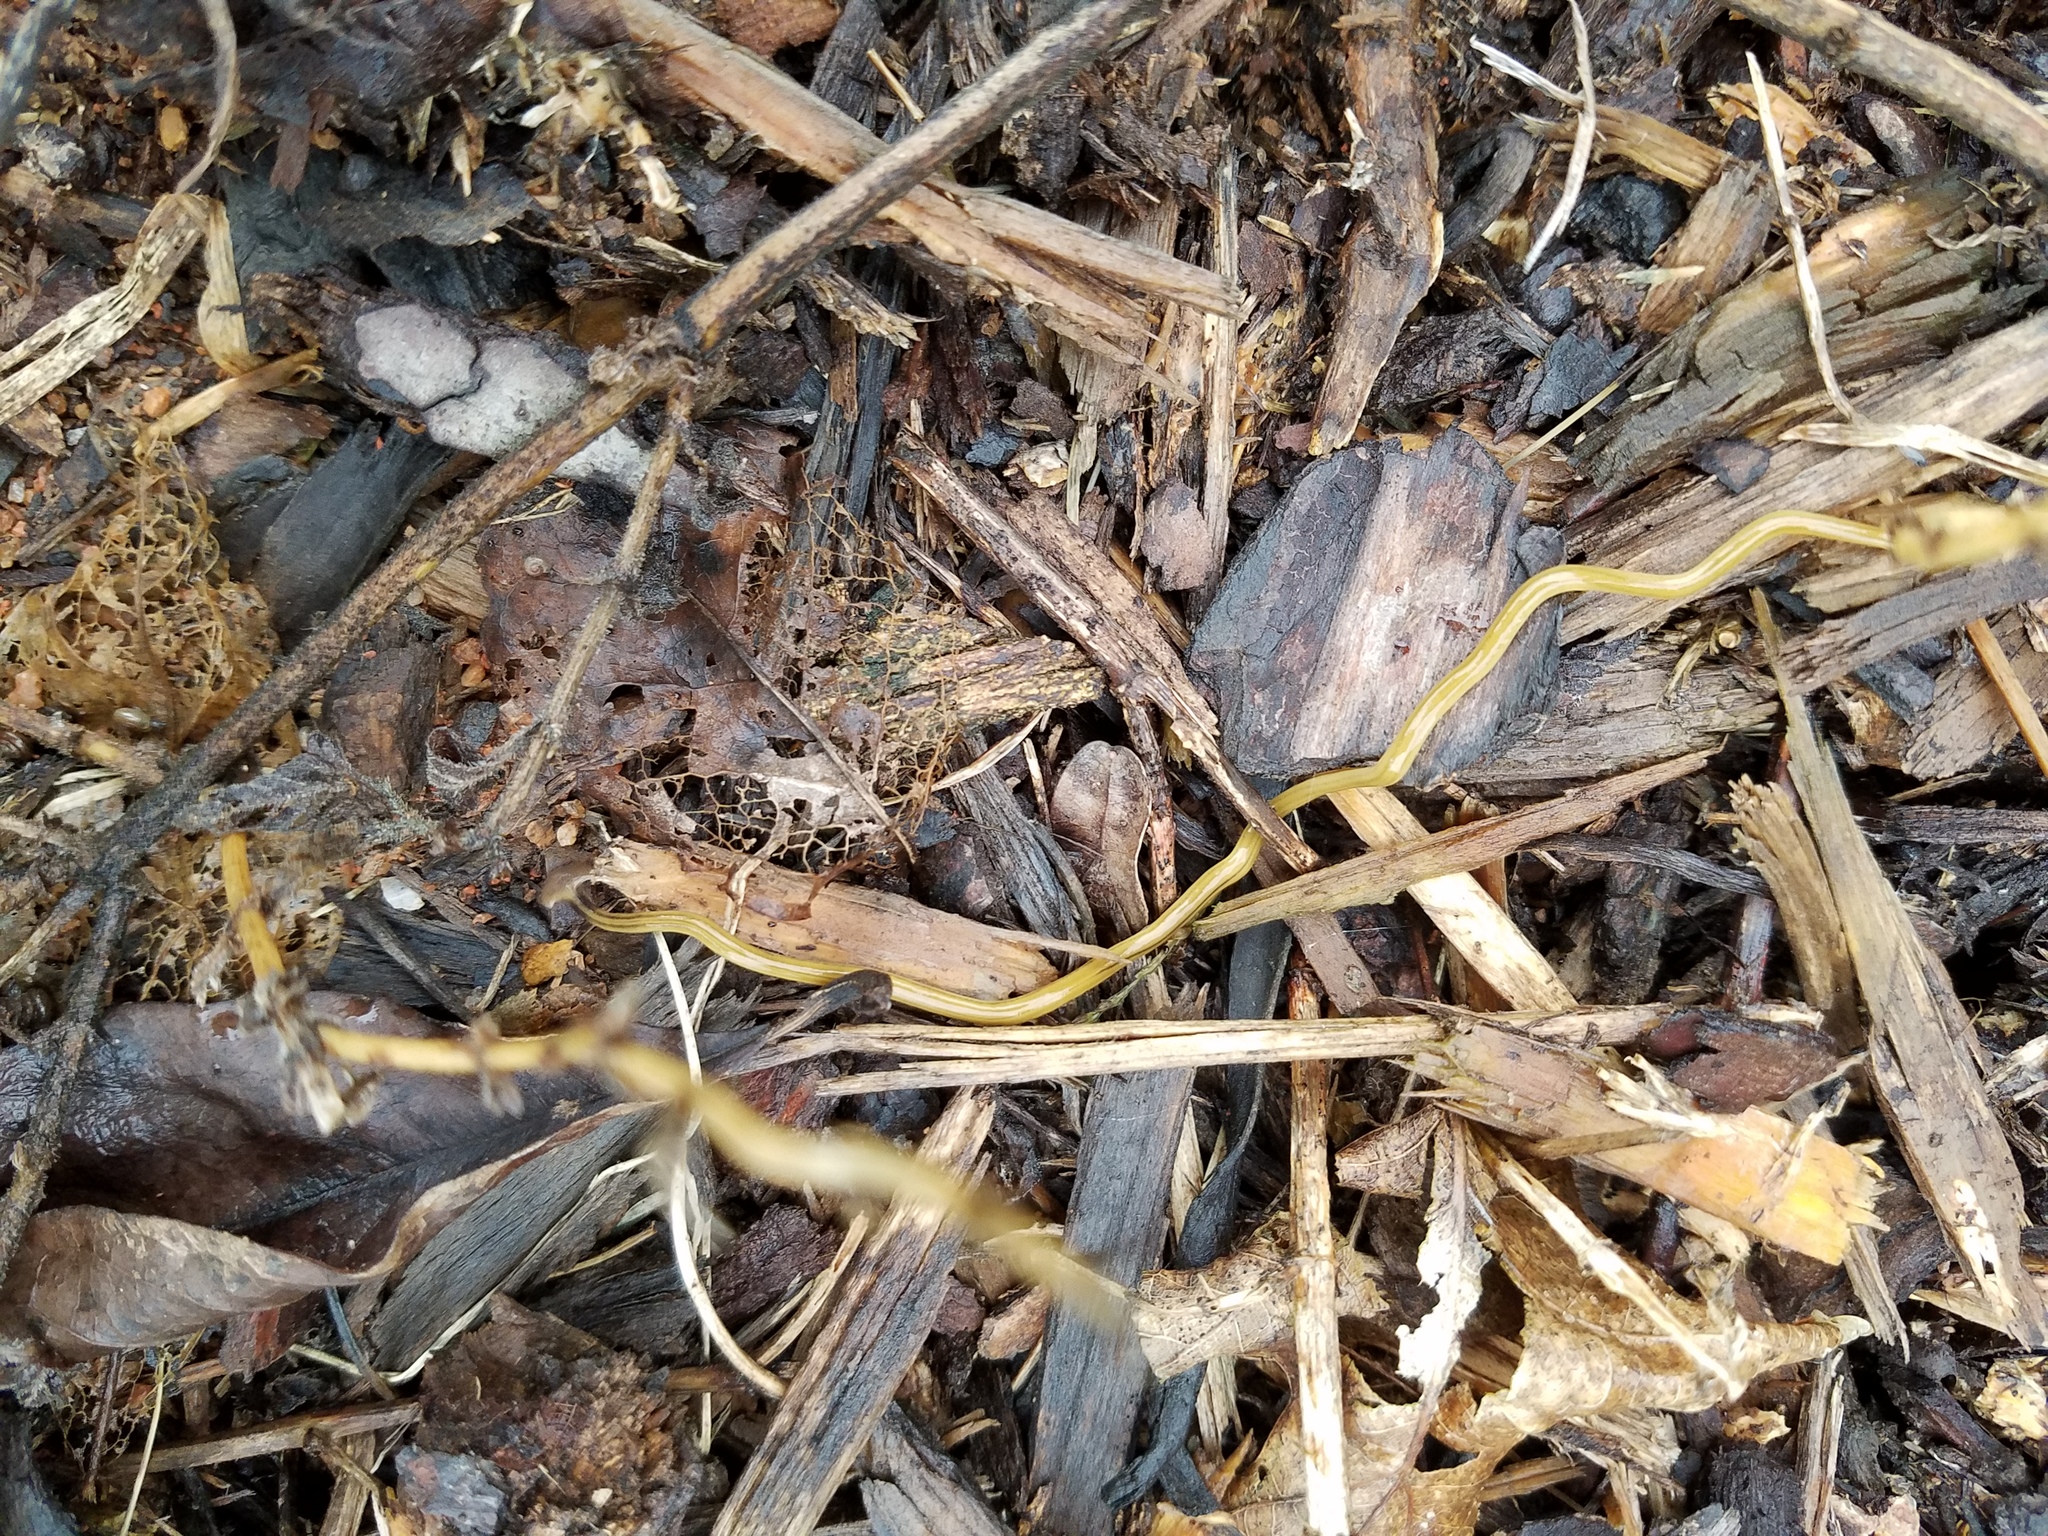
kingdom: Animalia
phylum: Platyhelminthes
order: Tricladida
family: Geoplanidae
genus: Bipalium
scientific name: Bipalium kewense
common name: Hammerhead flatworm
